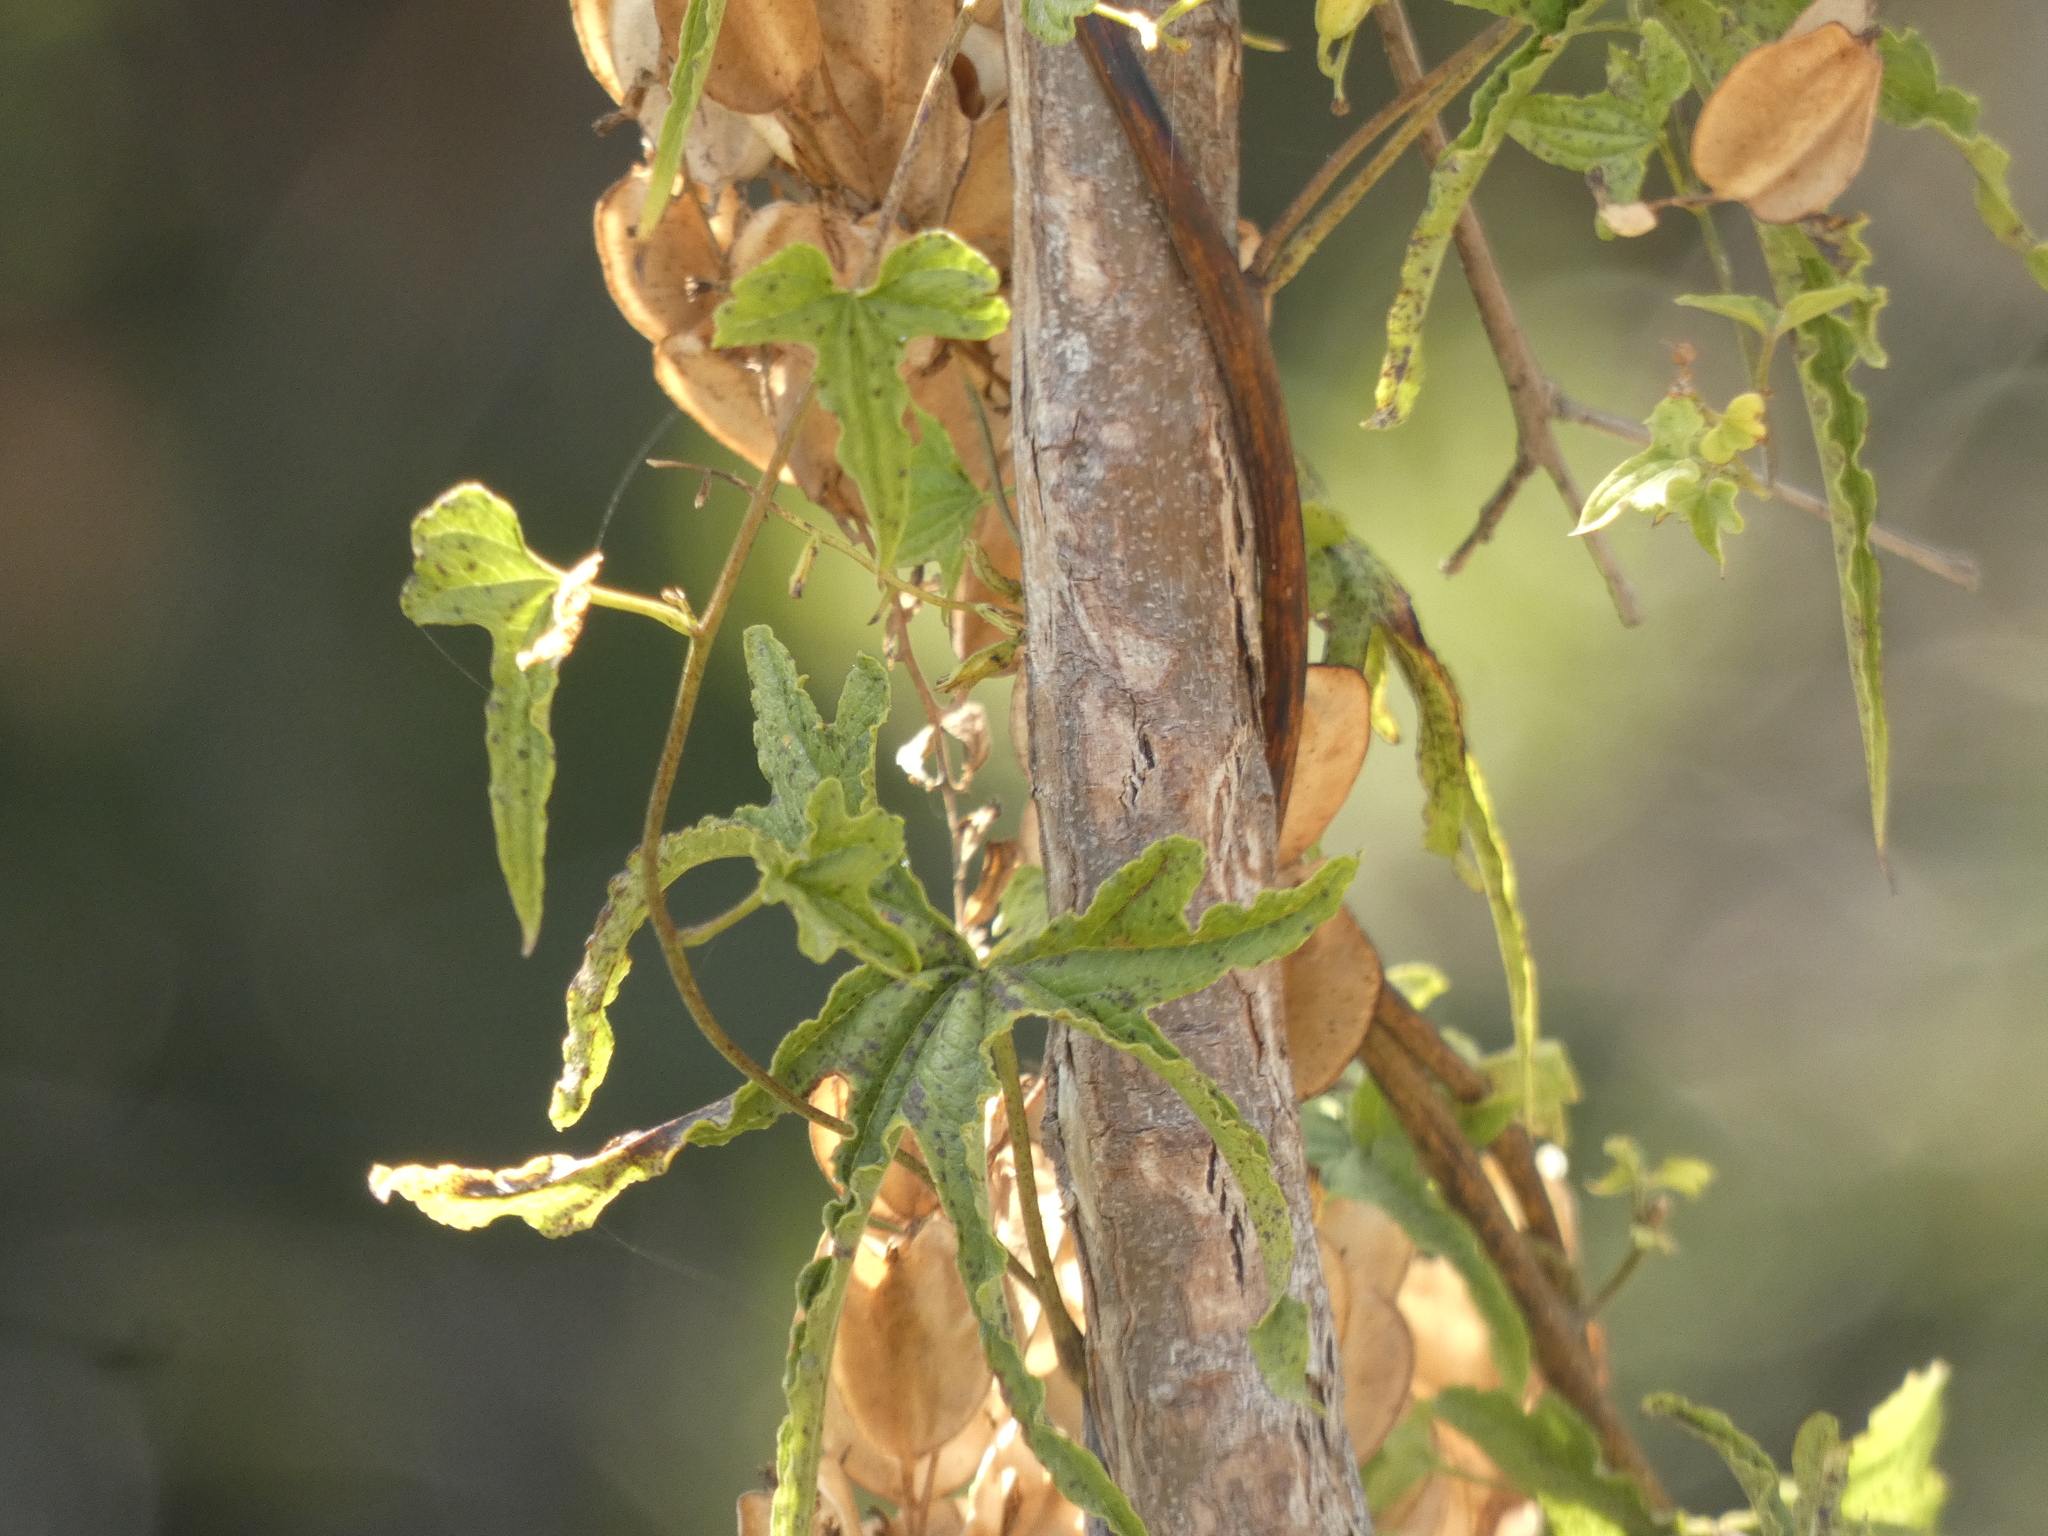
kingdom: Plantae
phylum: Tracheophyta
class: Liliopsida
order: Dioscoreales
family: Dioscoreaceae
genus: Dioscorea
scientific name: Dioscorea brachybotrya
